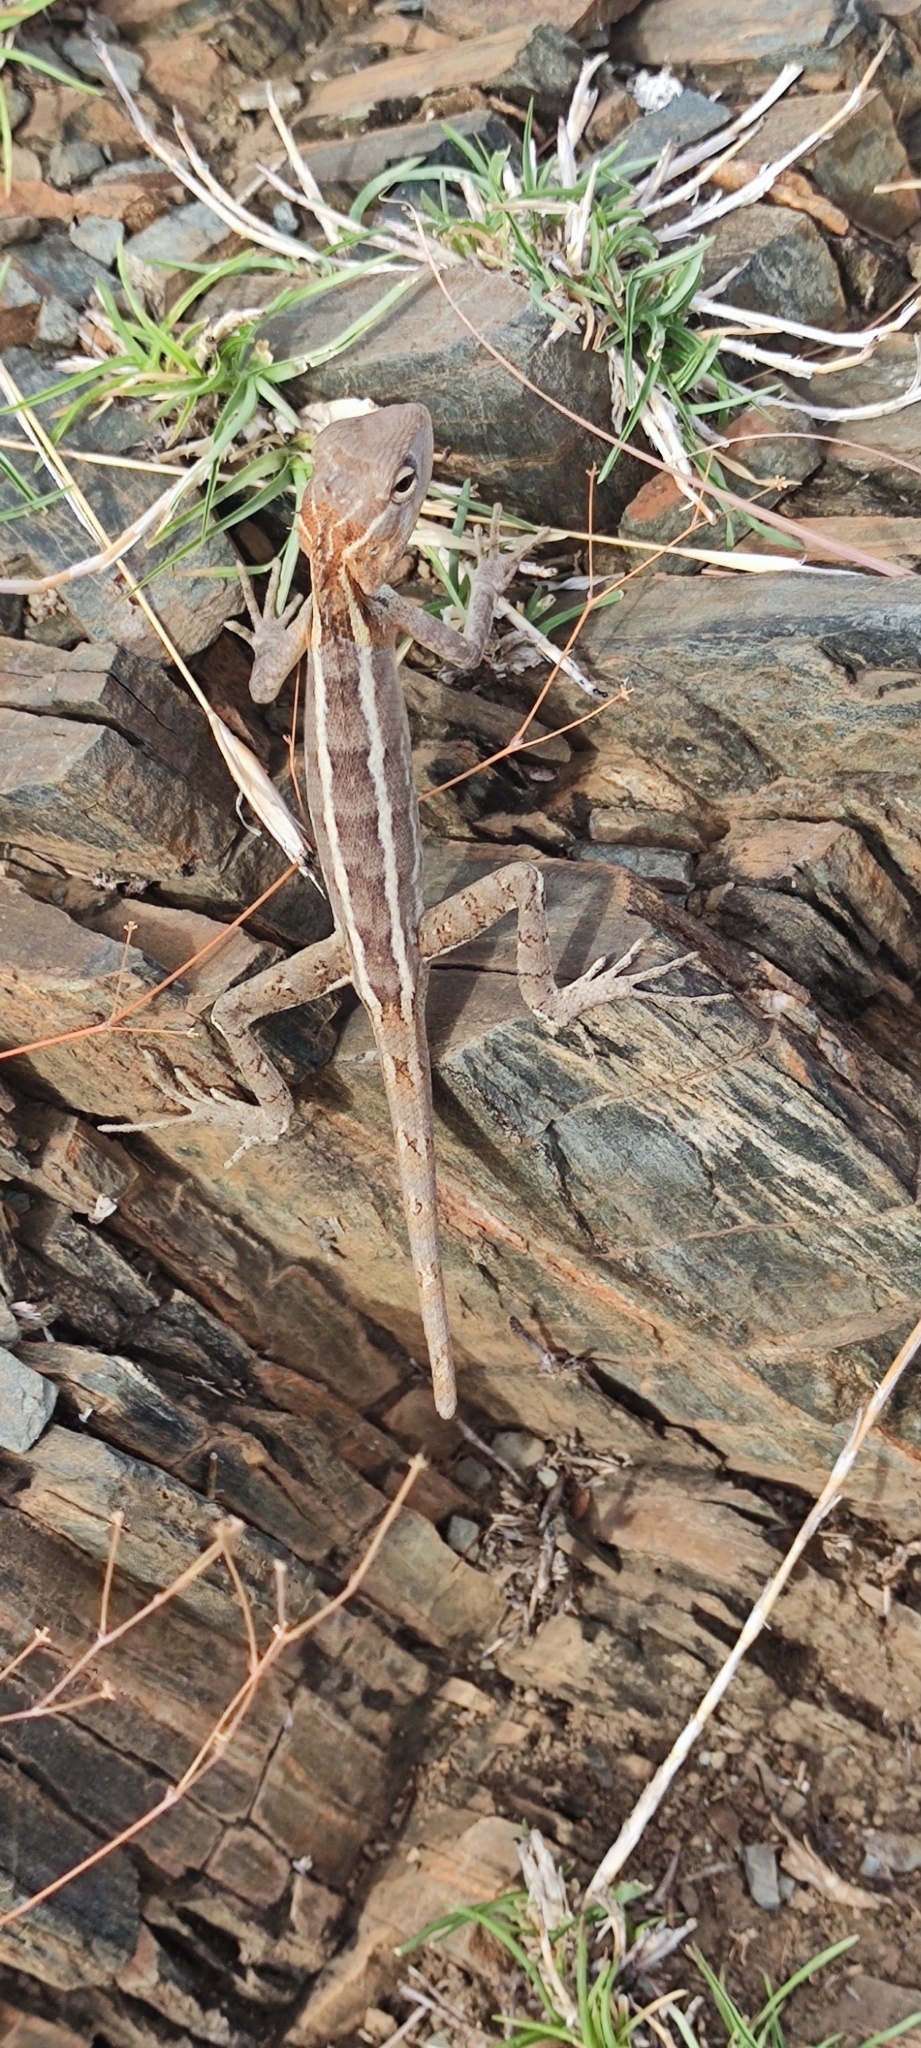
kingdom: Animalia
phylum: Chordata
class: Squamata
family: Agamidae
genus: Calotes
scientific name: Calotes versicolor
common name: Oriental garden lizard
